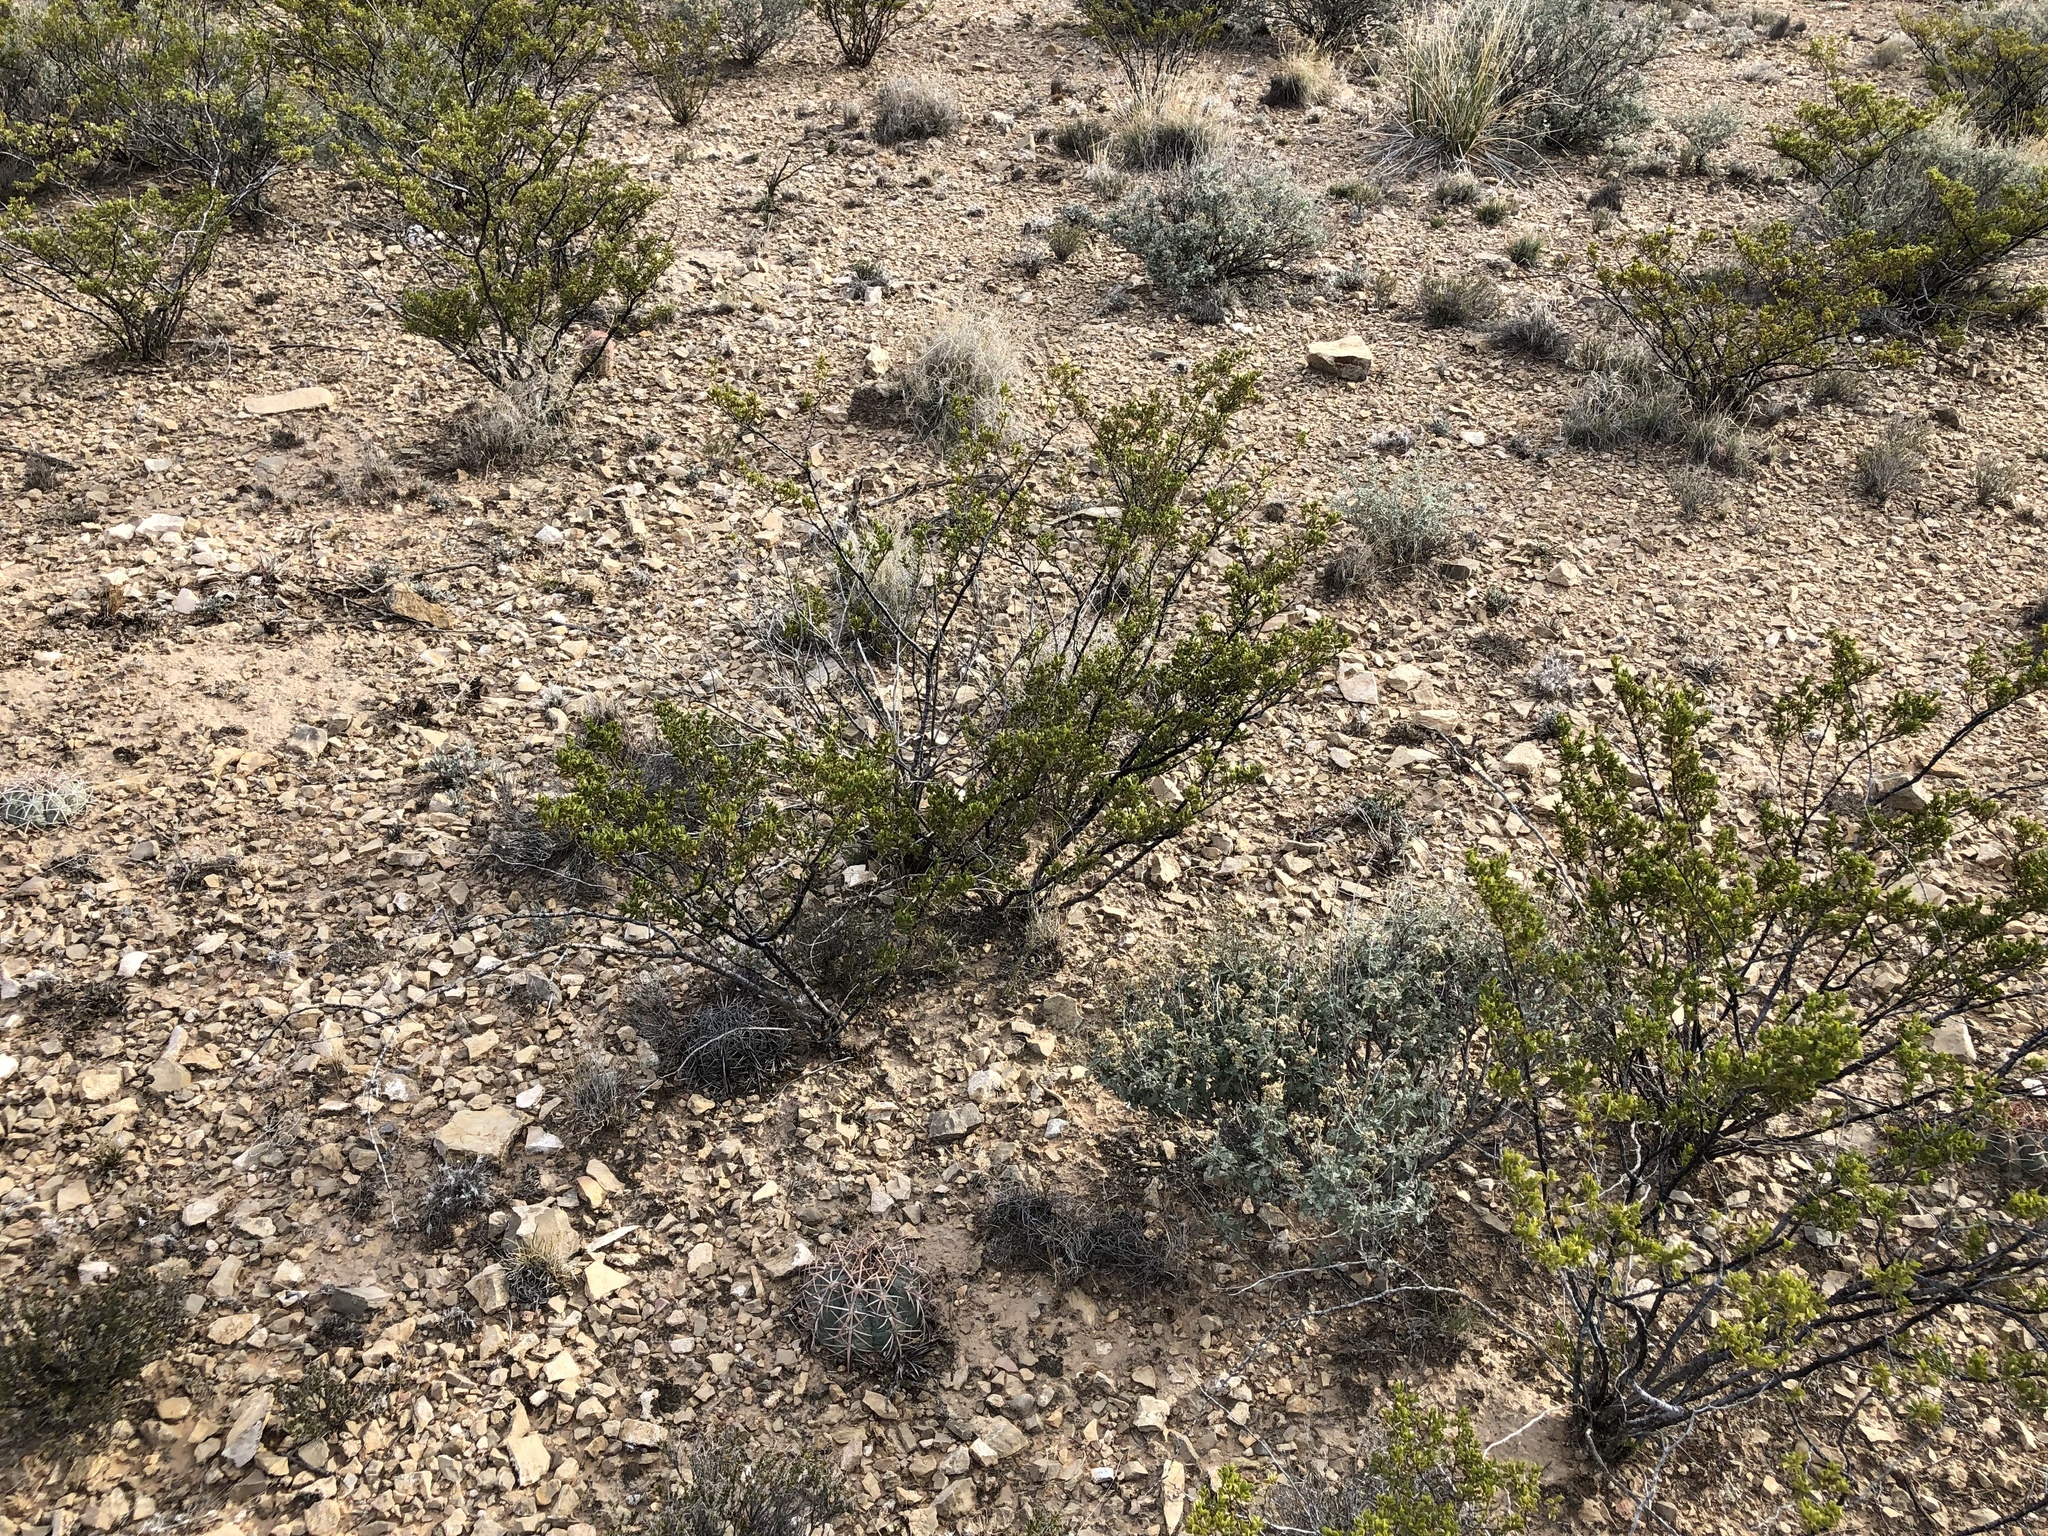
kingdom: Plantae
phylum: Tracheophyta
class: Magnoliopsida
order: Zygophyllales
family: Zygophyllaceae
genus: Larrea
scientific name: Larrea tridentata
